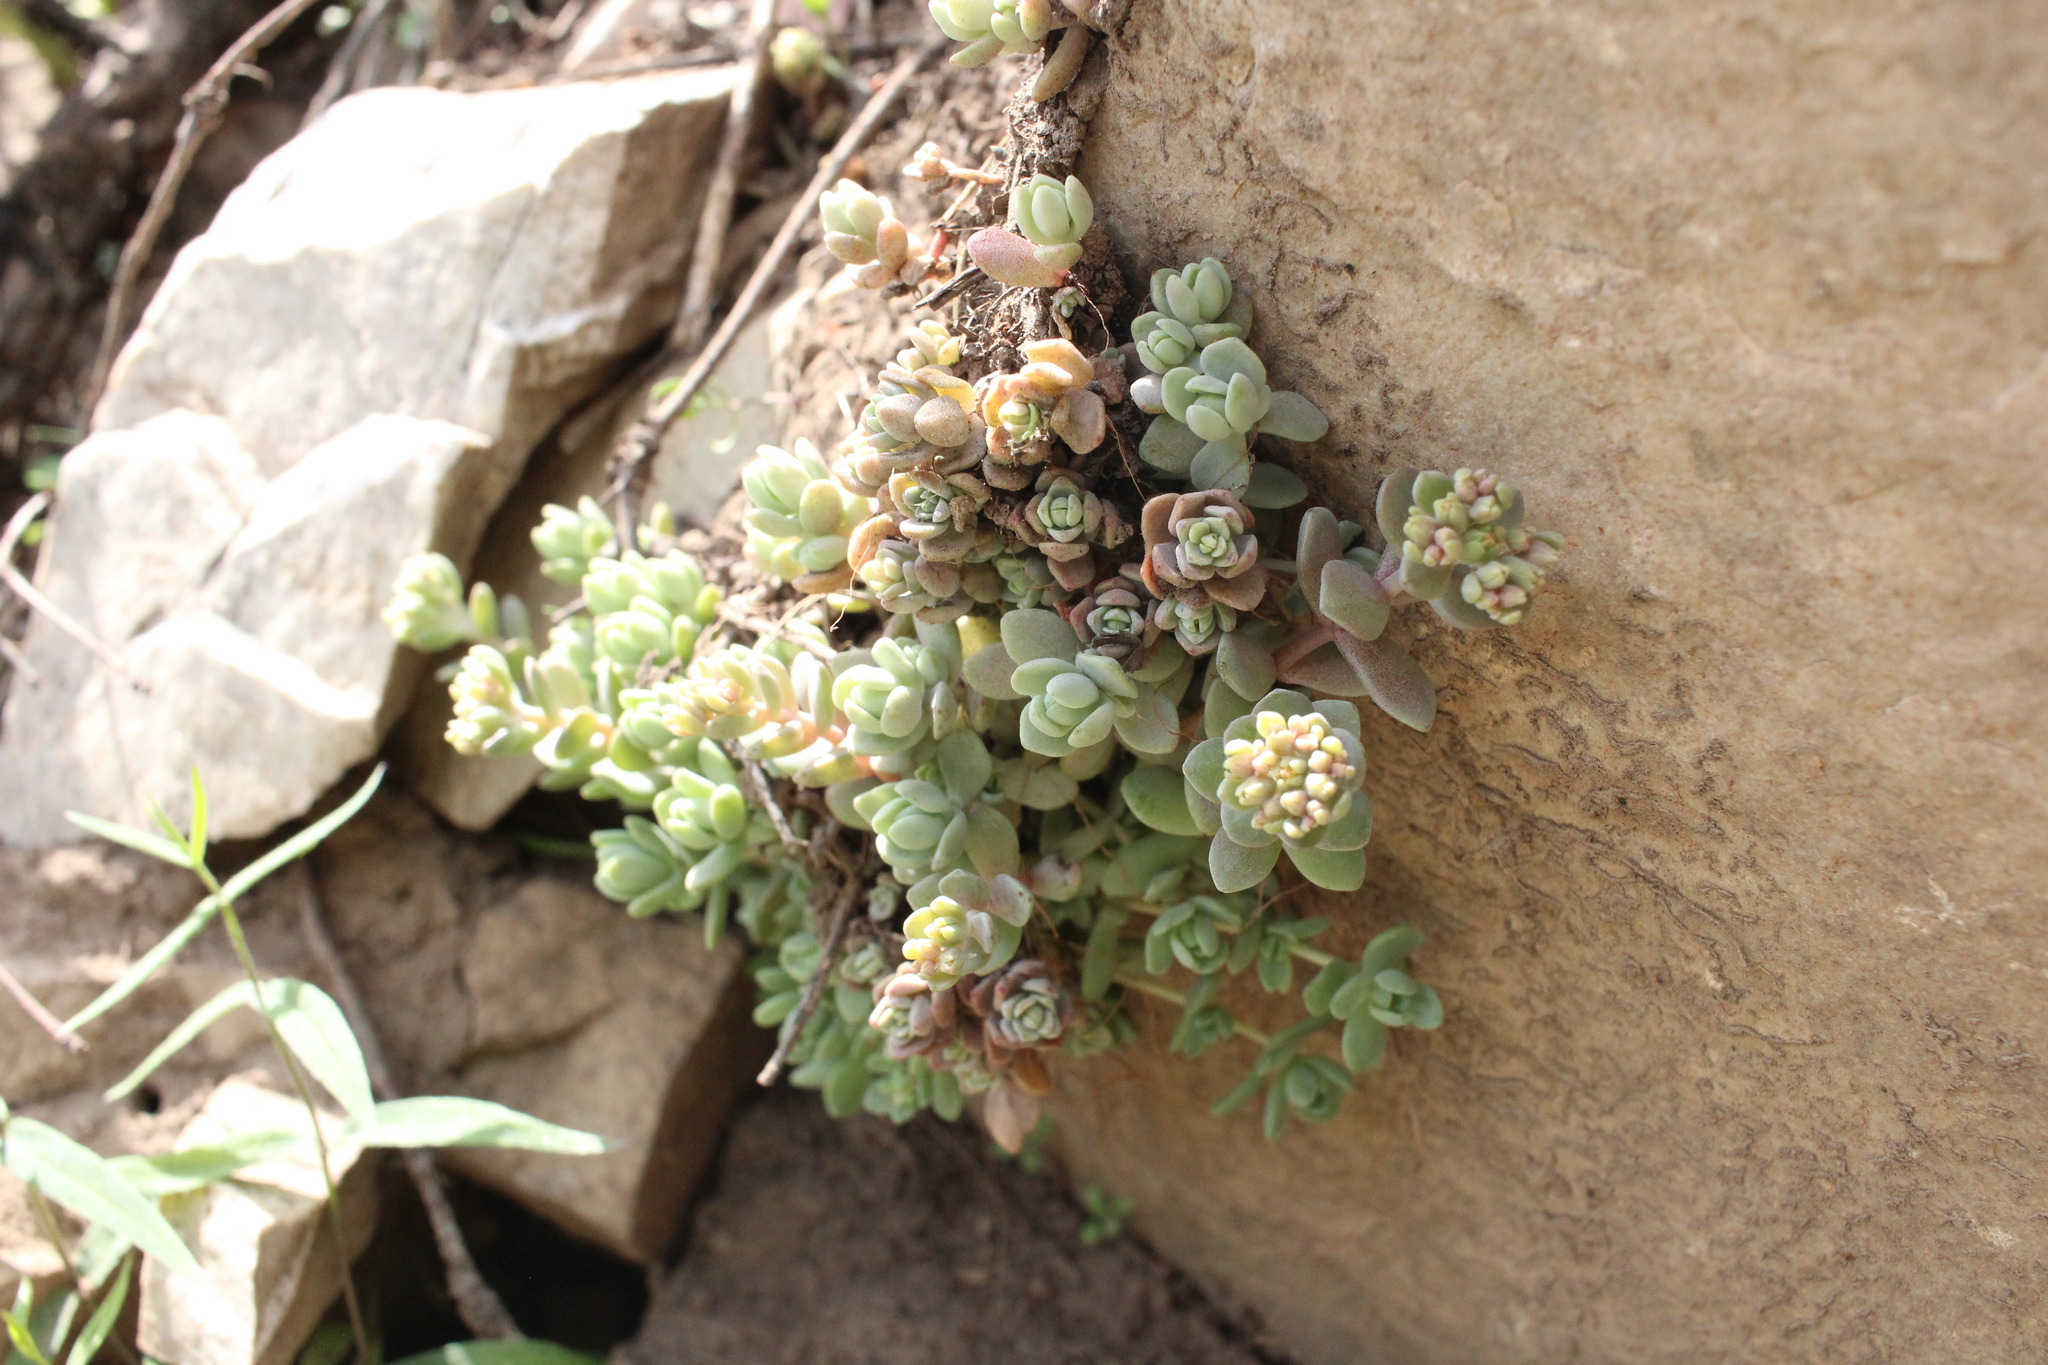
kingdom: Plantae
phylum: Tracheophyta
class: Magnoliopsida
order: Saxifragales
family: Crassulaceae
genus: Sedum
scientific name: Sedum debile
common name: Weak-stem stonecrop
